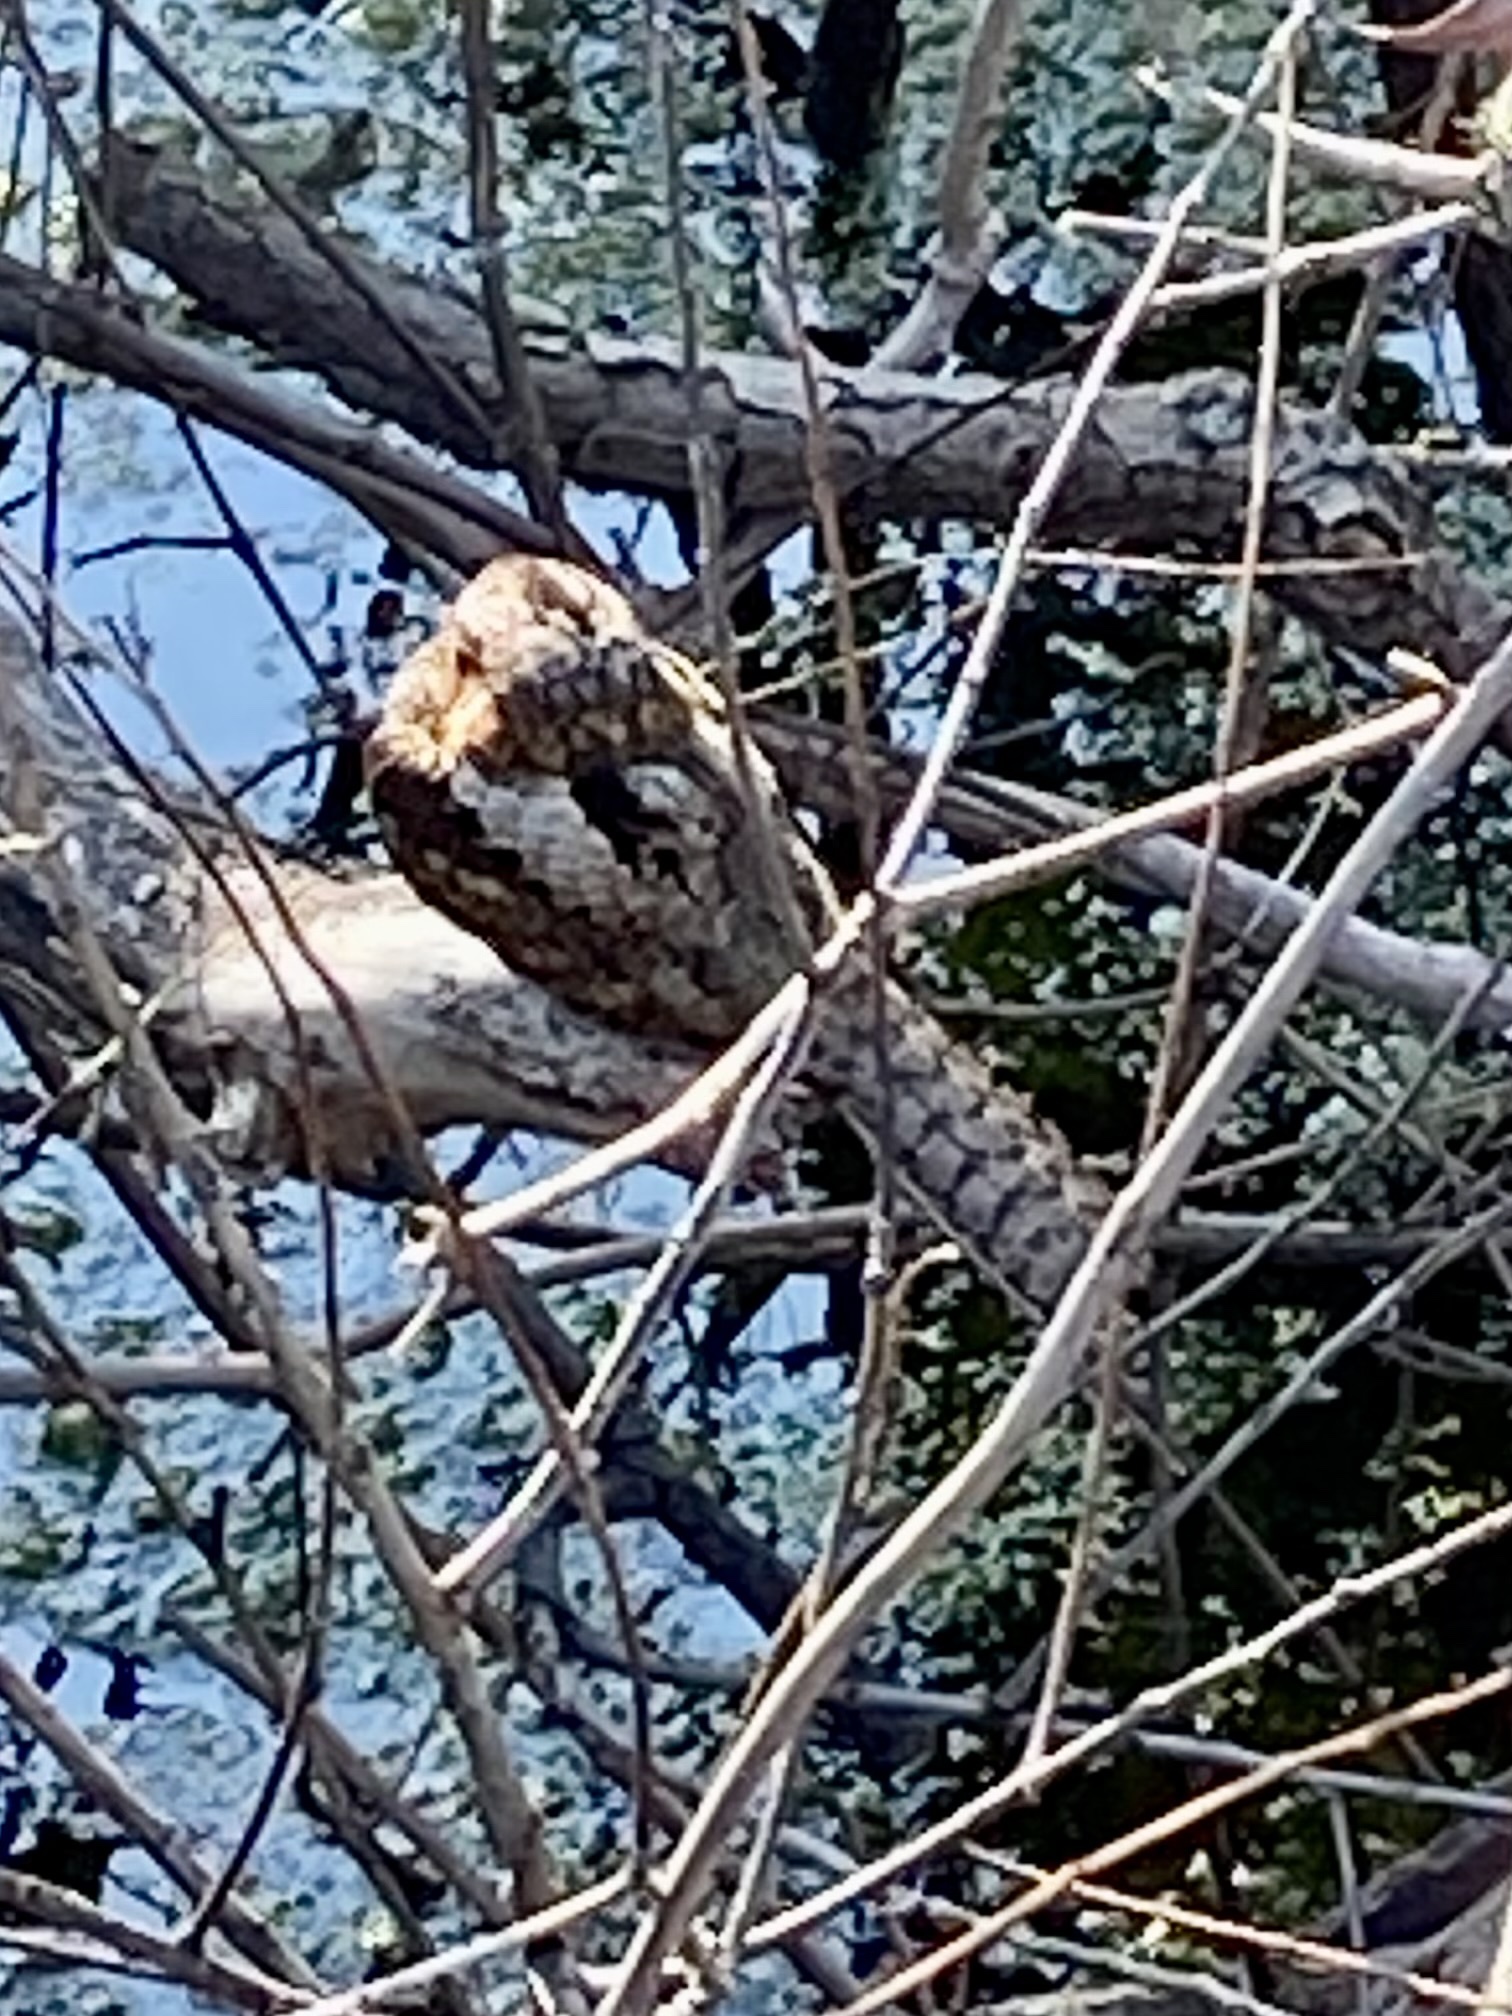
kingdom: Animalia
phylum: Chordata
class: Aves
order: Caprimulgiformes
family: Caprimulgidae
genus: Antrostomus
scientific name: Antrostomus vociferus
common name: Eastern whip-poor-will
